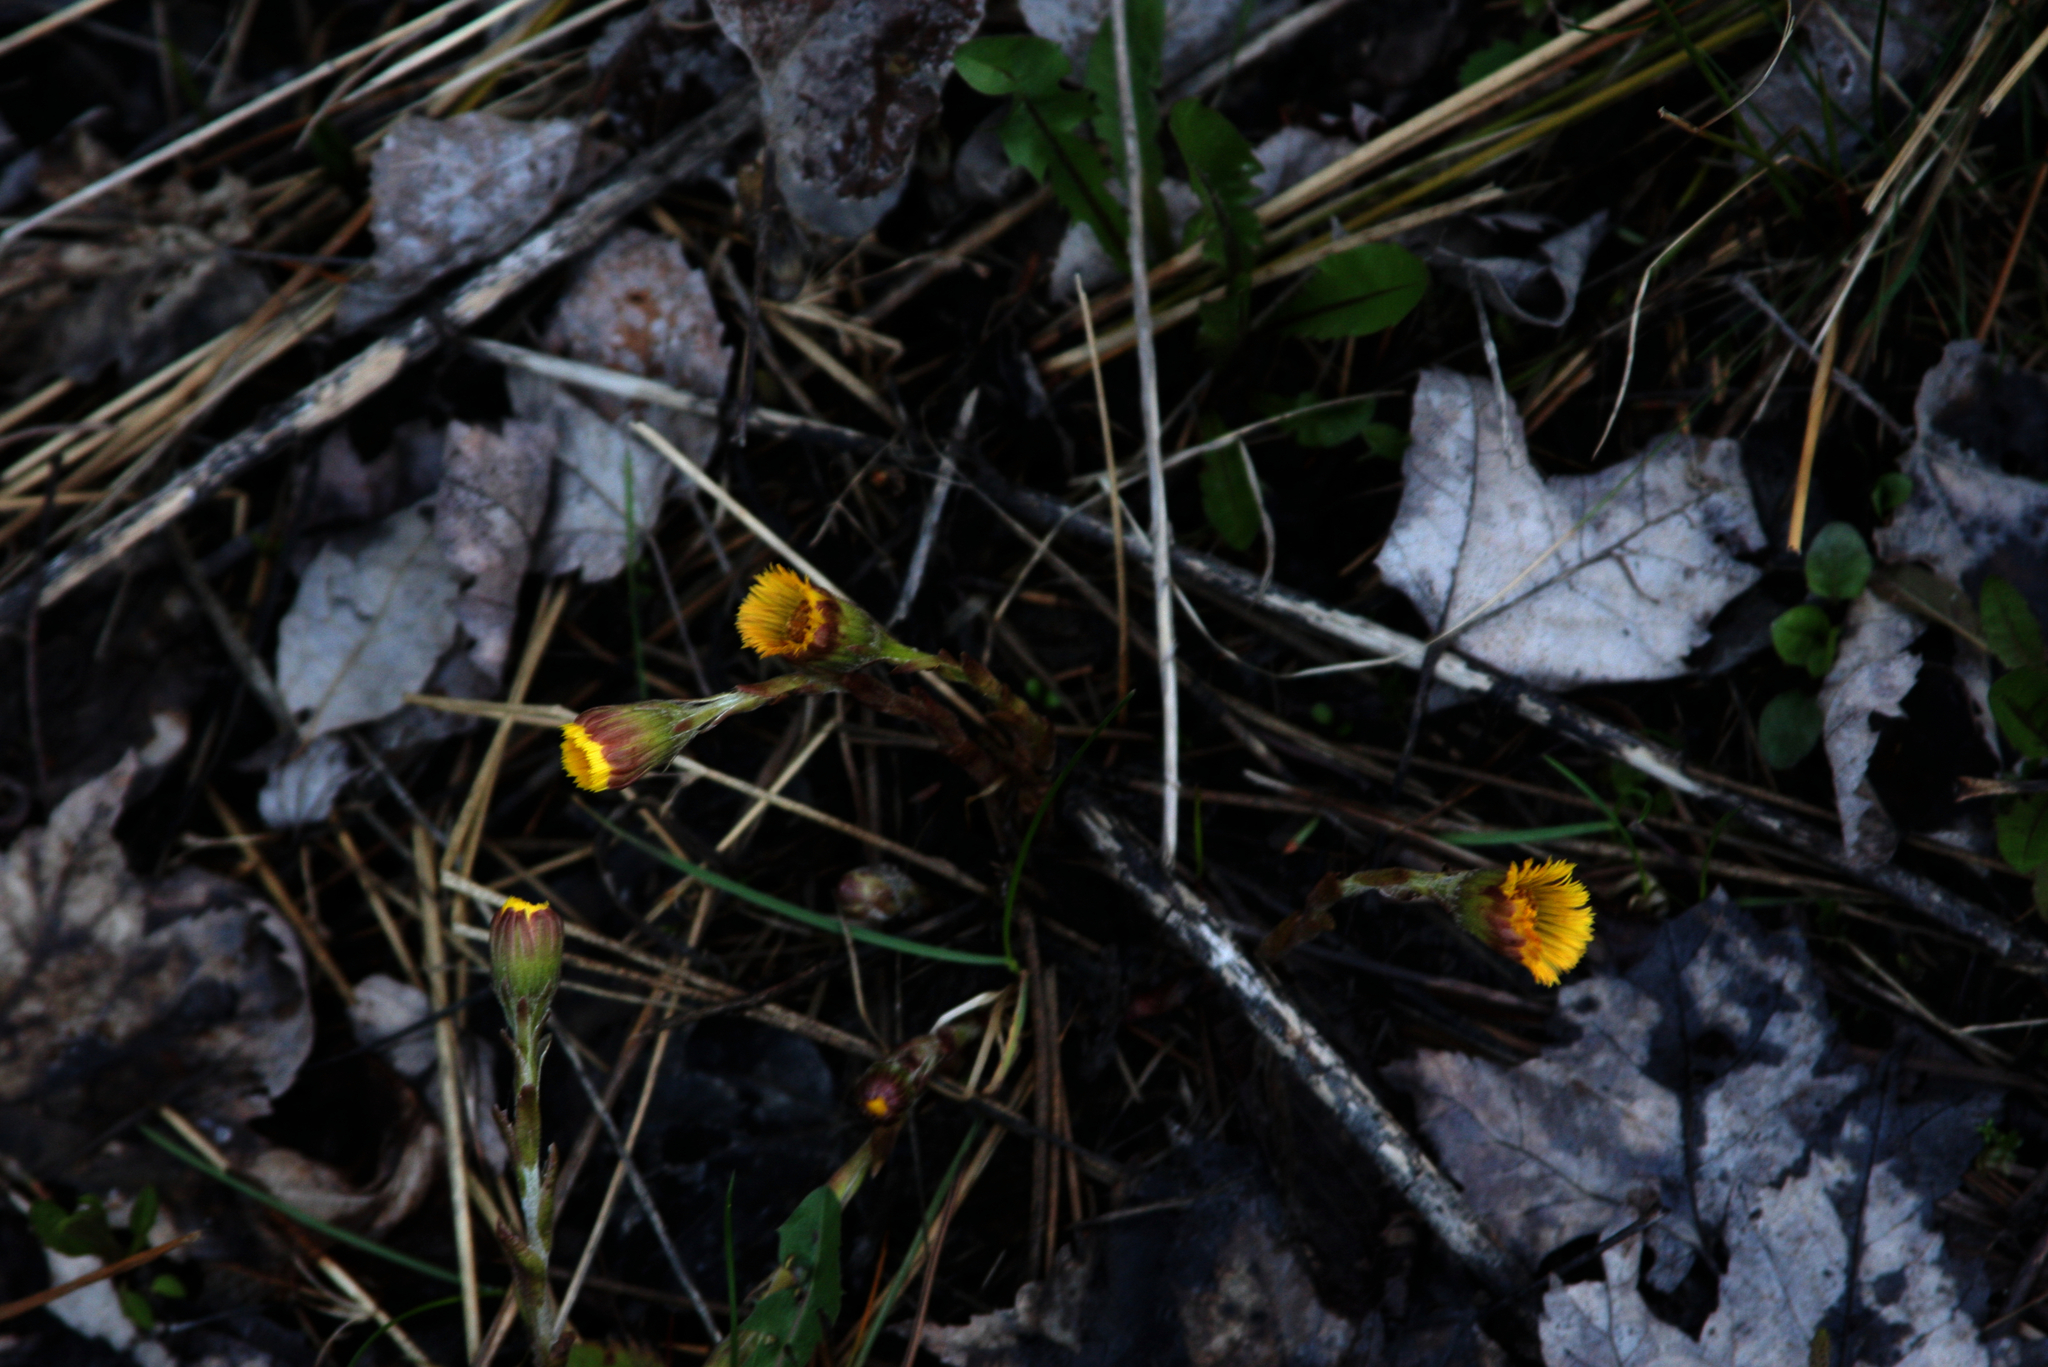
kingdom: Plantae
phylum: Tracheophyta
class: Magnoliopsida
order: Asterales
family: Asteraceae
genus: Tussilago
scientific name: Tussilago farfara
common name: Coltsfoot
